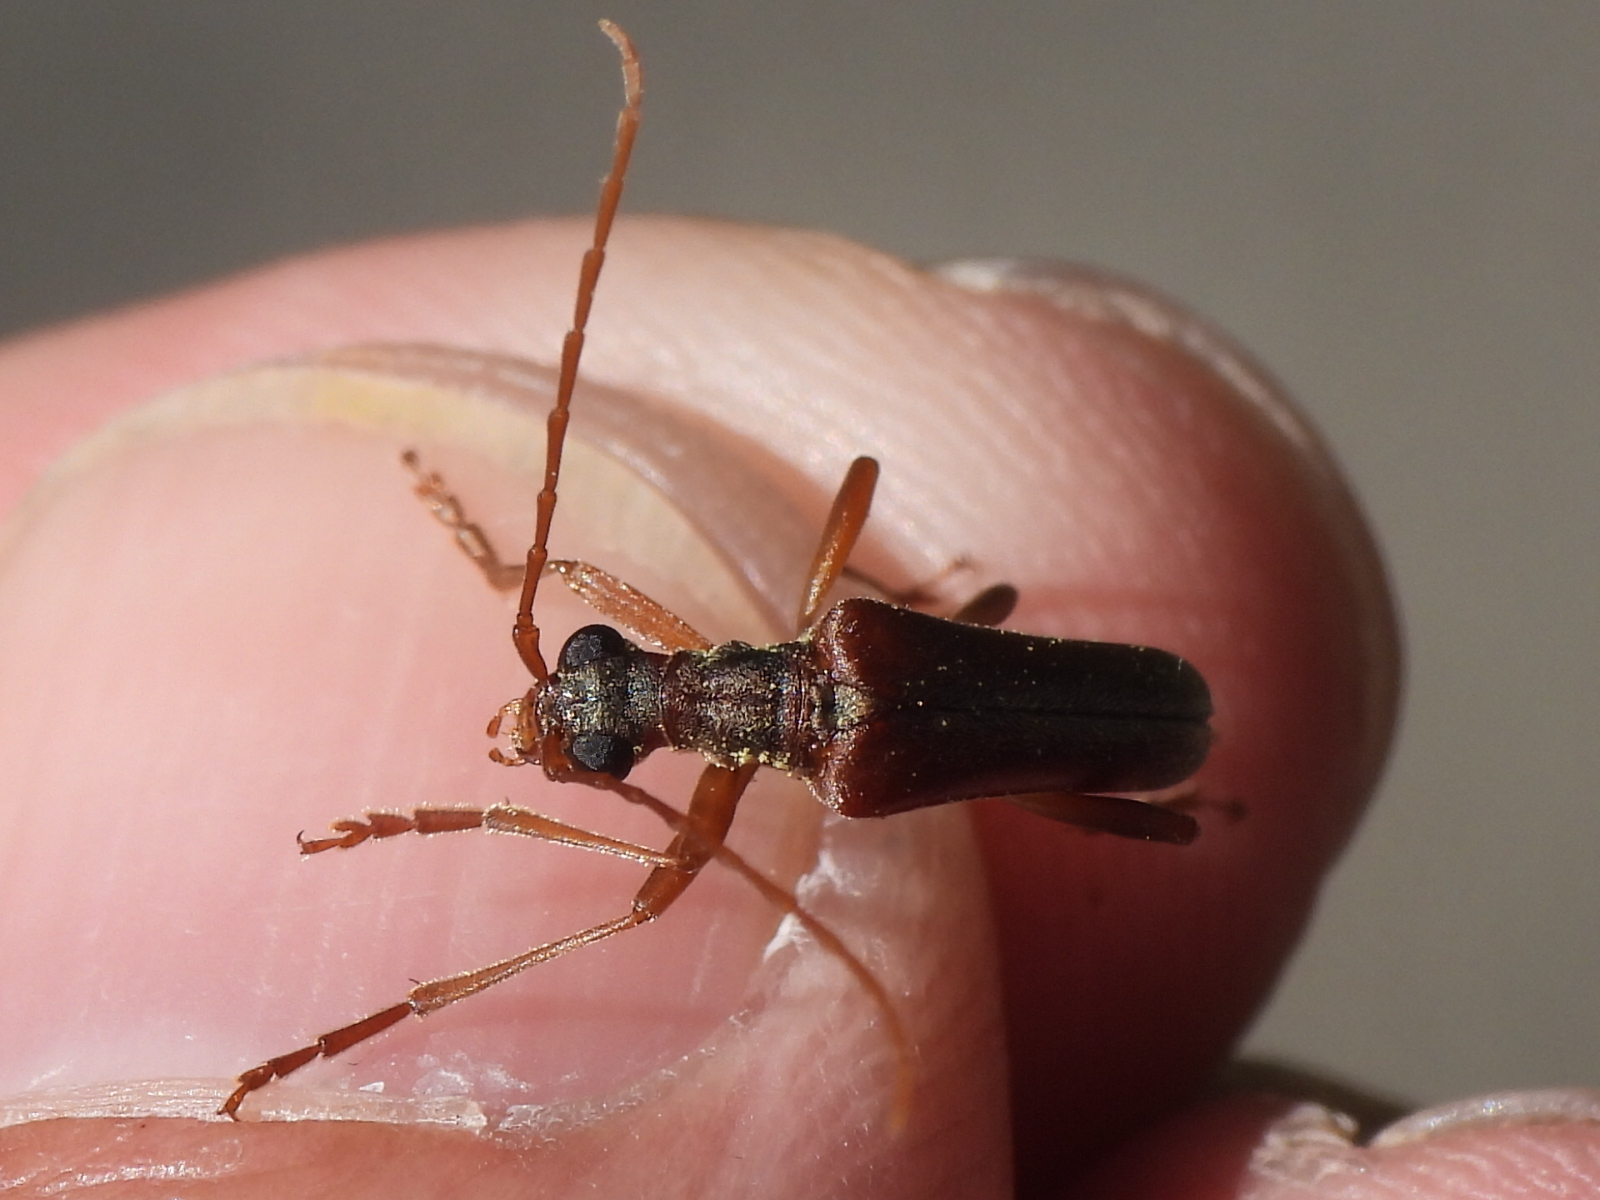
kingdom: Animalia
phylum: Arthropoda
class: Insecta
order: Coleoptera
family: Cerambycidae
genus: Stenocorus
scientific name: Stenocorus cinnamopterus
